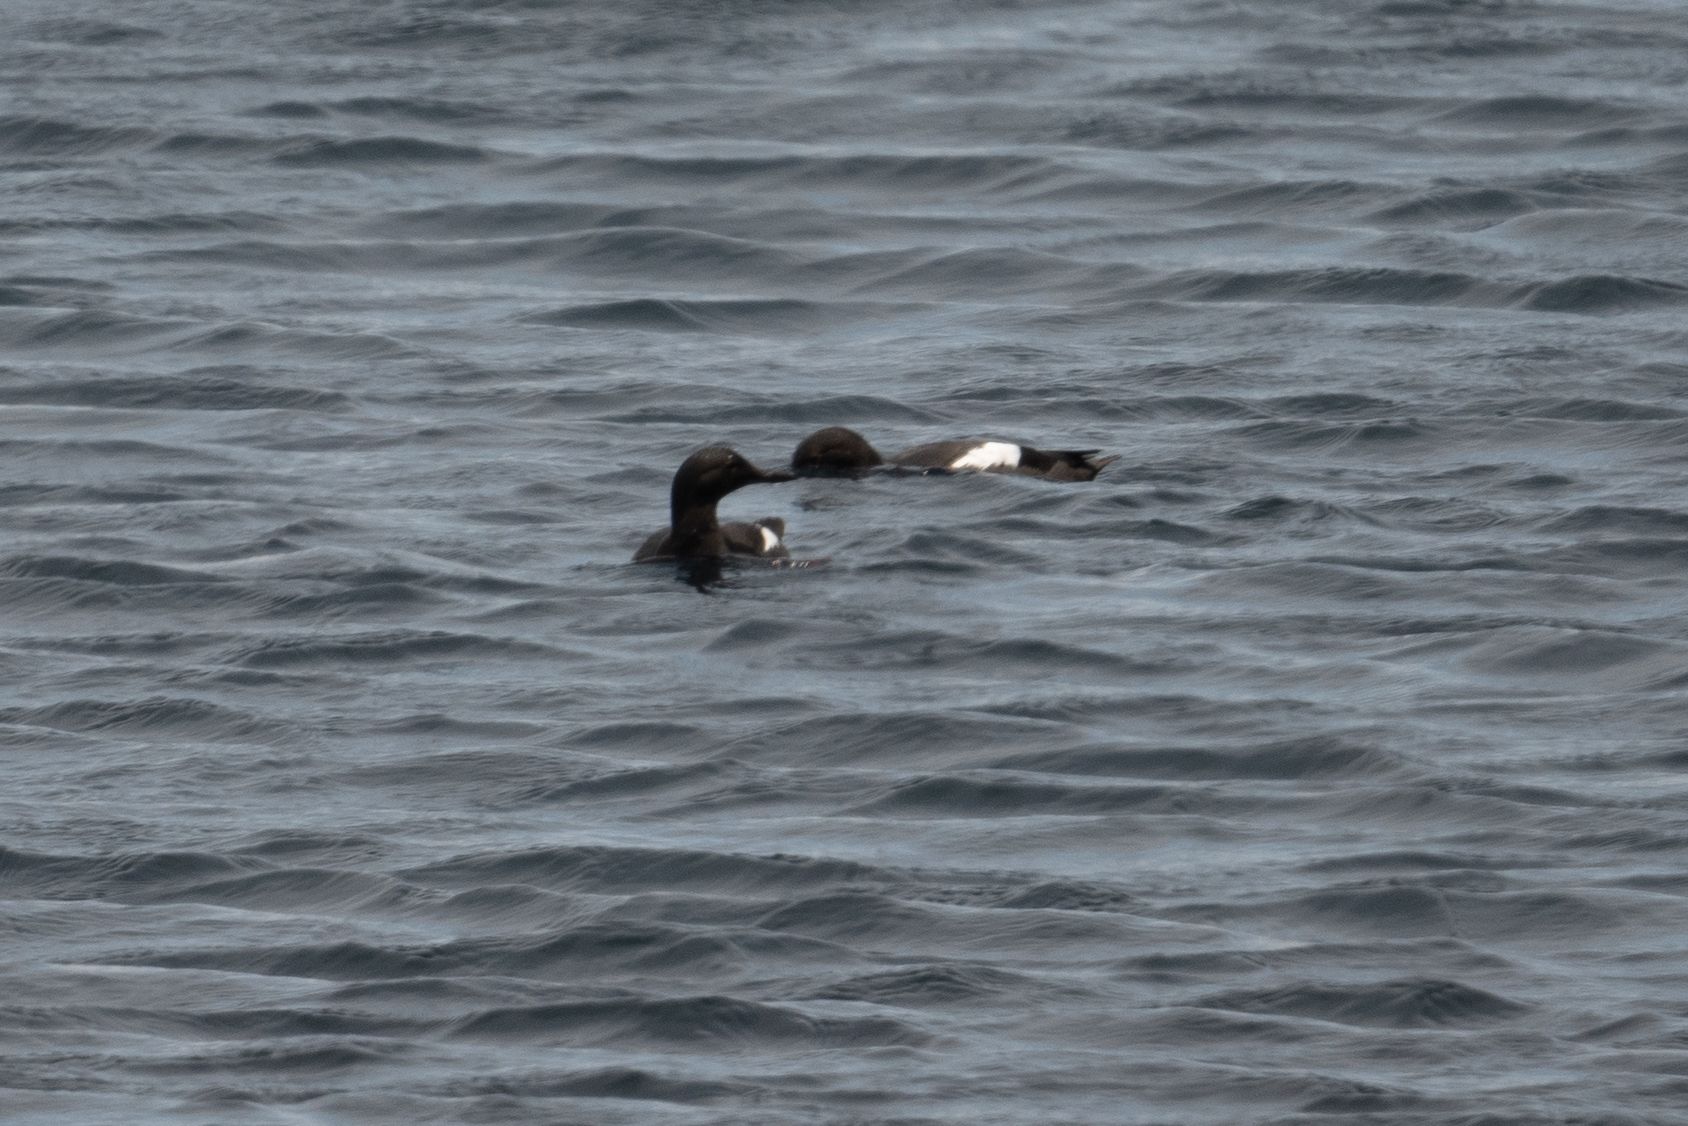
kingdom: Animalia
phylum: Chordata
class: Aves
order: Charadriiformes
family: Alcidae
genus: Cepphus
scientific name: Cepphus columba
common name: Pigeon guillemot
